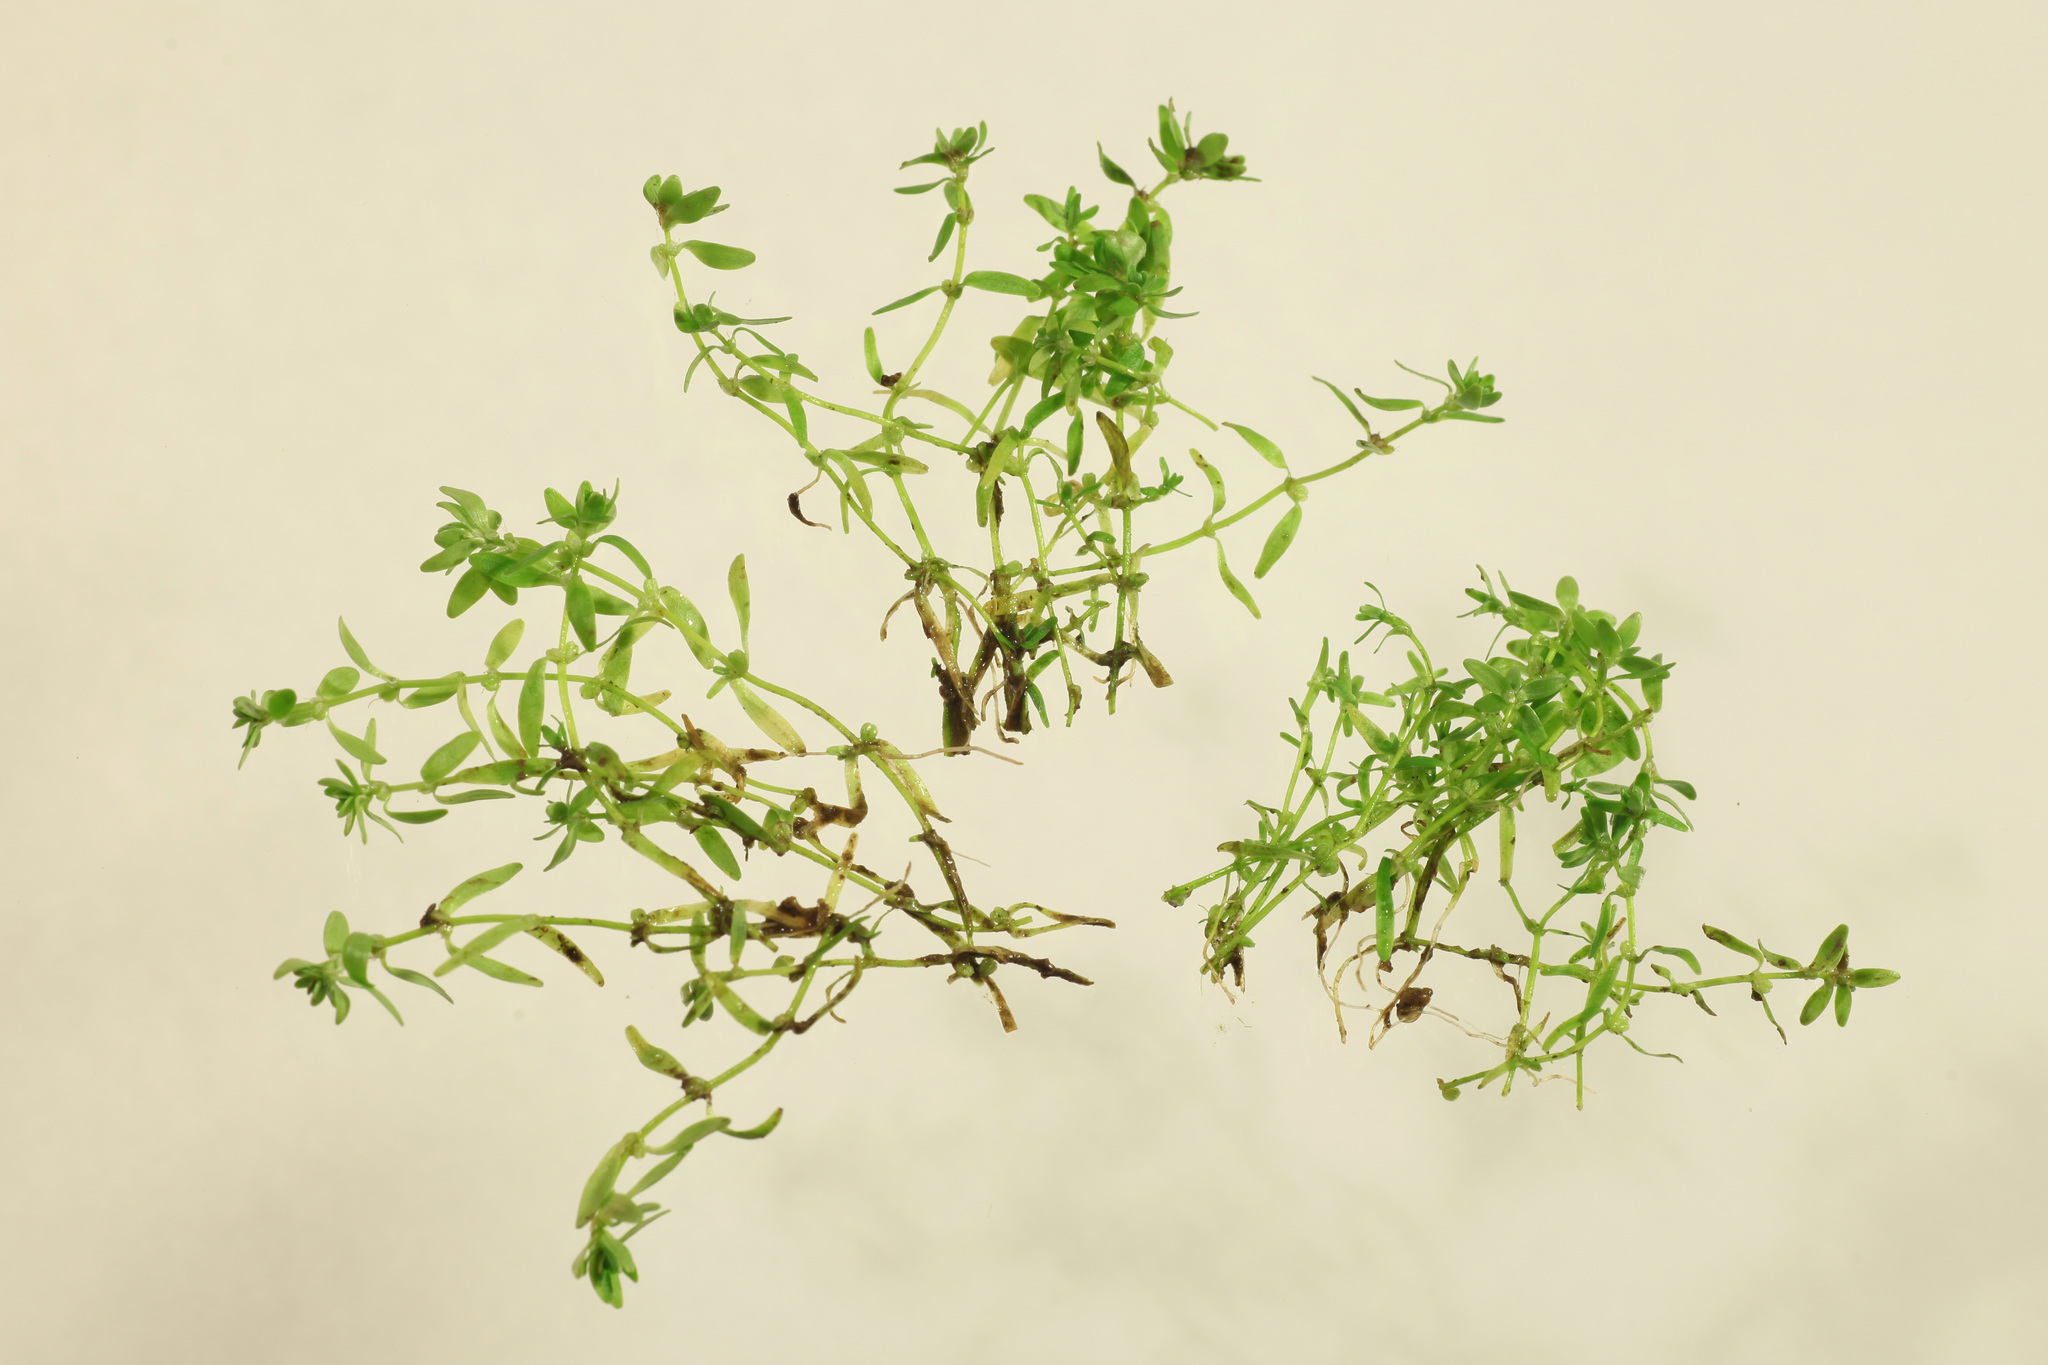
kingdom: Plantae
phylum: Tracheophyta
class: Magnoliopsida
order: Lamiales
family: Plantaginaceae
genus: Callitriche
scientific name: Callitriche palustris
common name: Spring water-starwort
